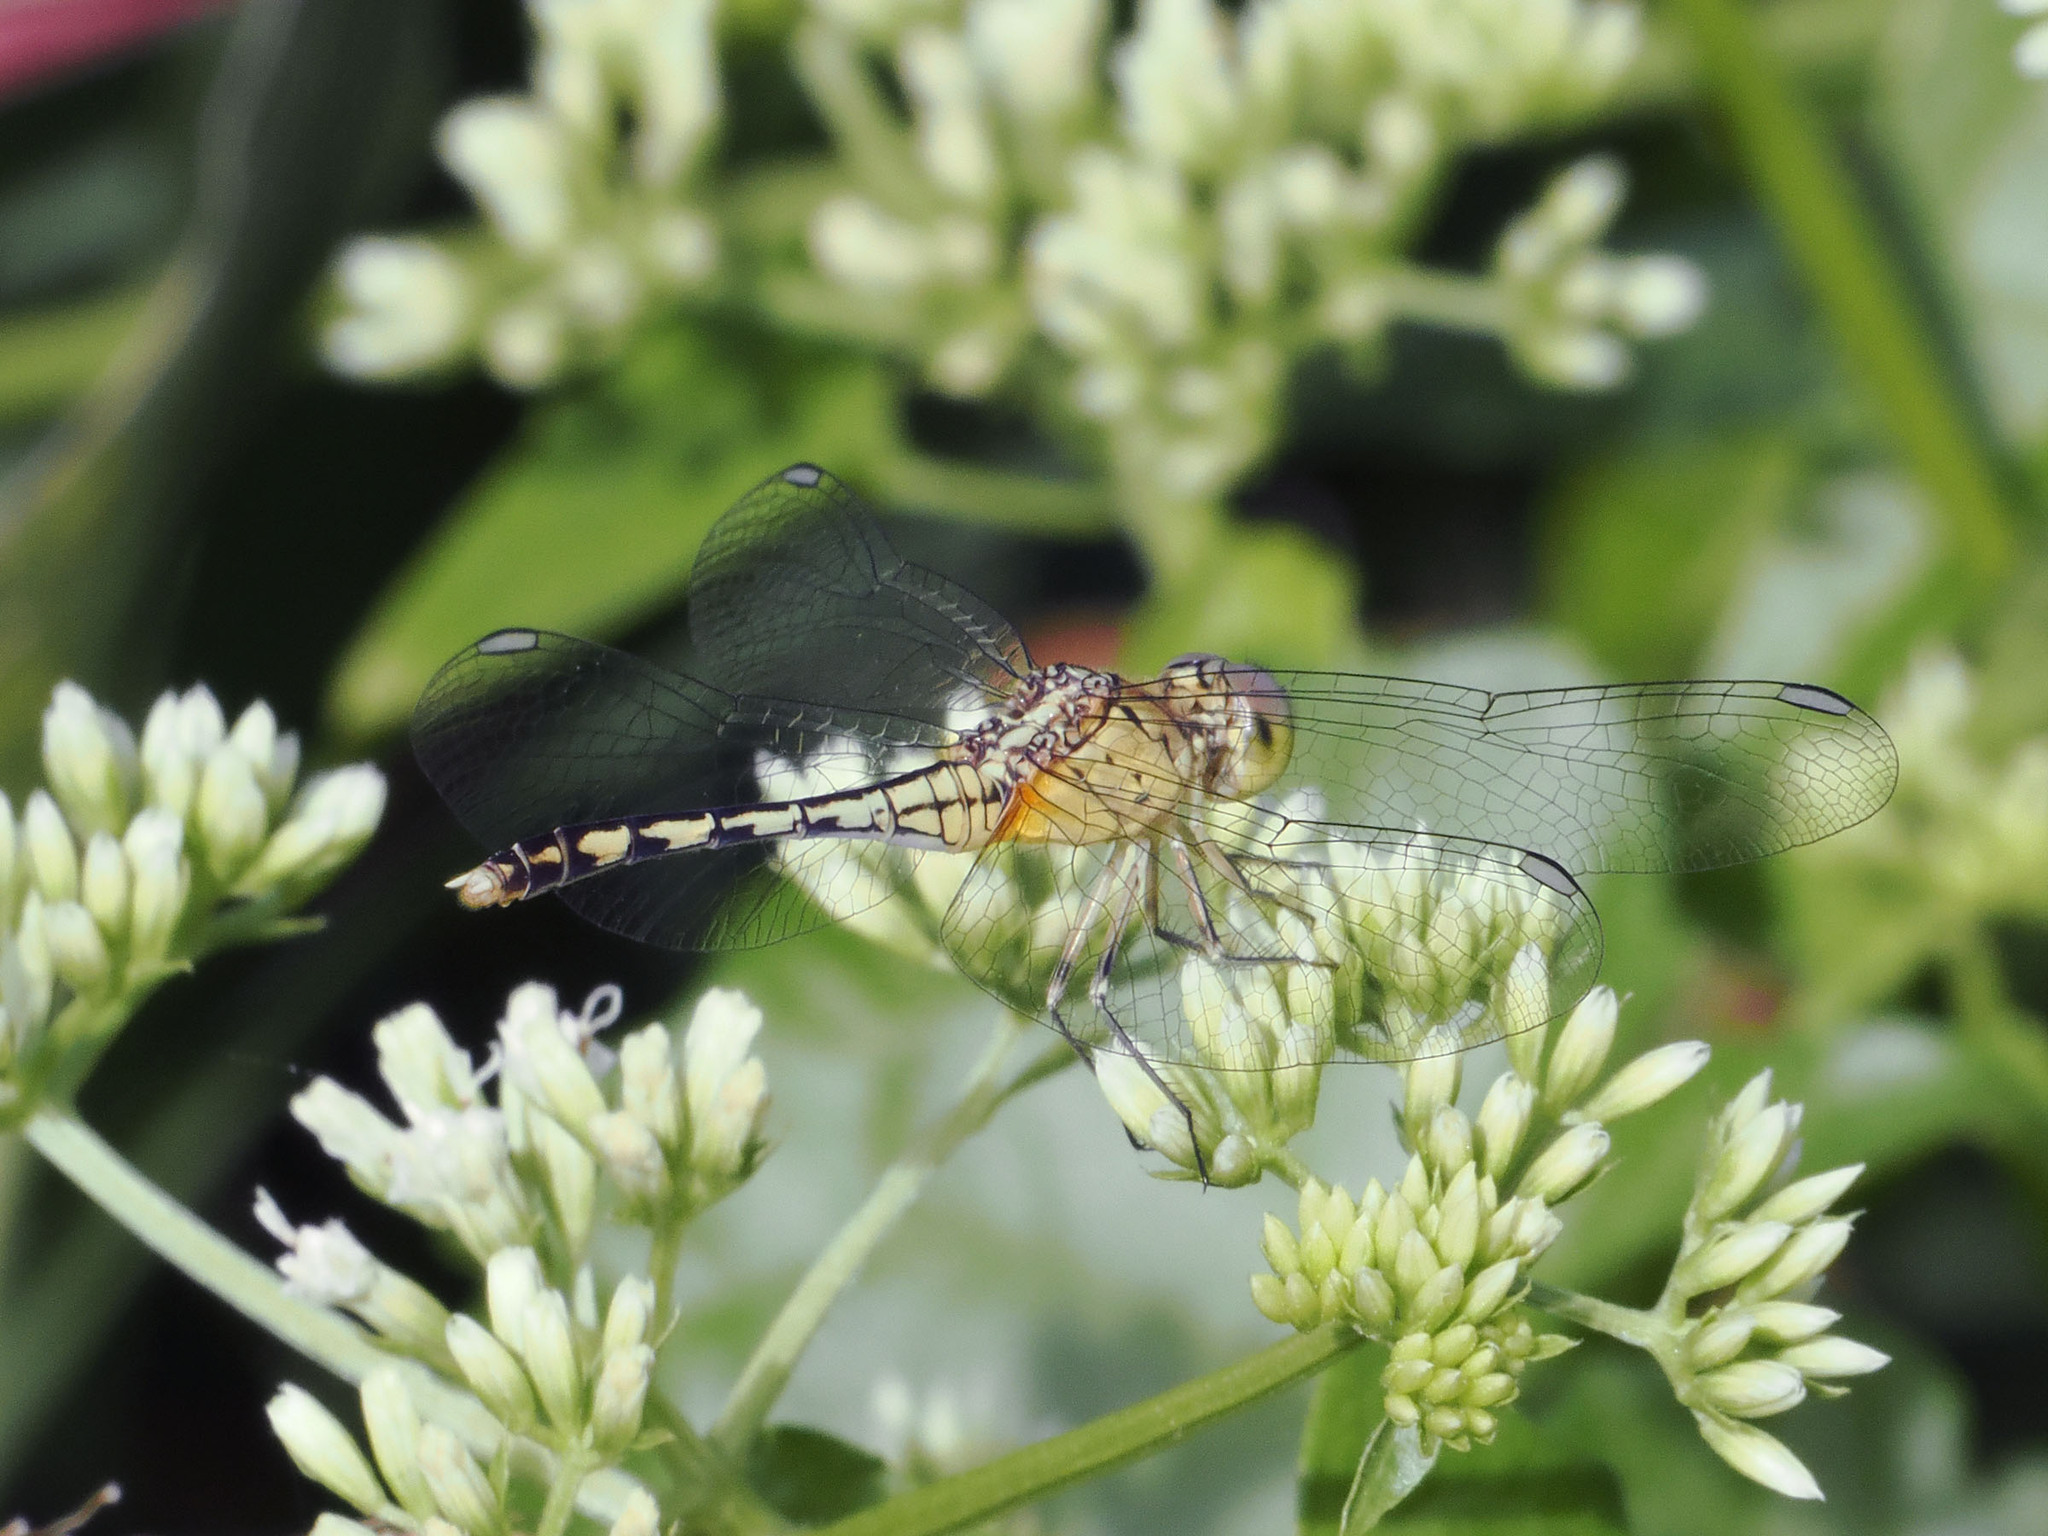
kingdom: Animalia
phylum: Arthropoda
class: Insecta
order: Odonata
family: Libellulidae
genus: Diplacodes
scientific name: Diplacodes trivialis
